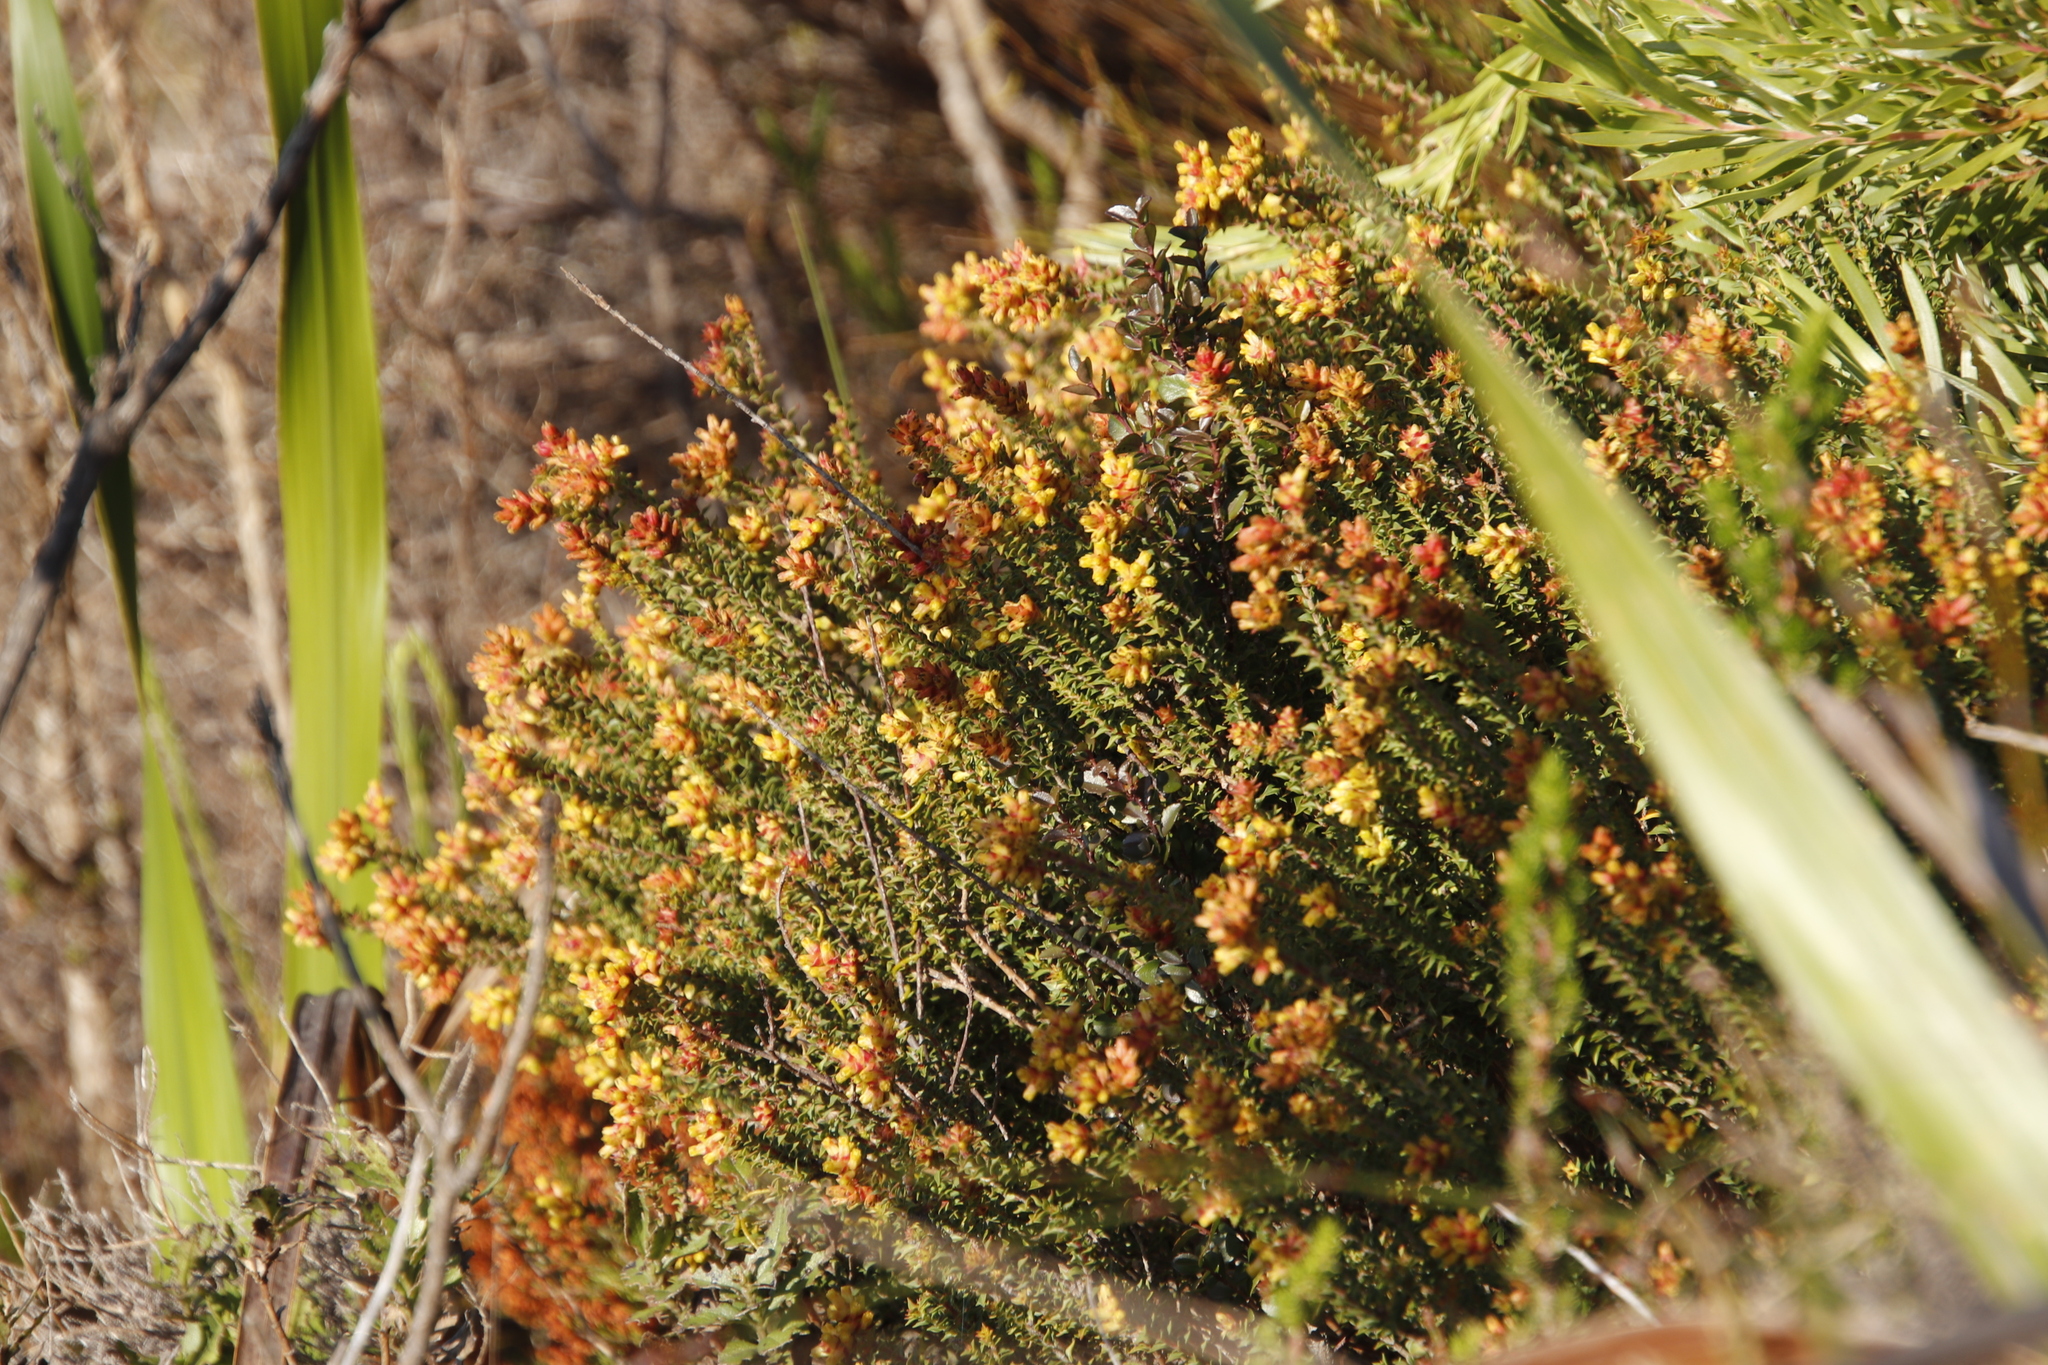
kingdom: Plantae
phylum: Tracheophyta
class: Magnoliopsida
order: Myrtales
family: Penaeaceae
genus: Penaea
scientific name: Penaea mucronata
